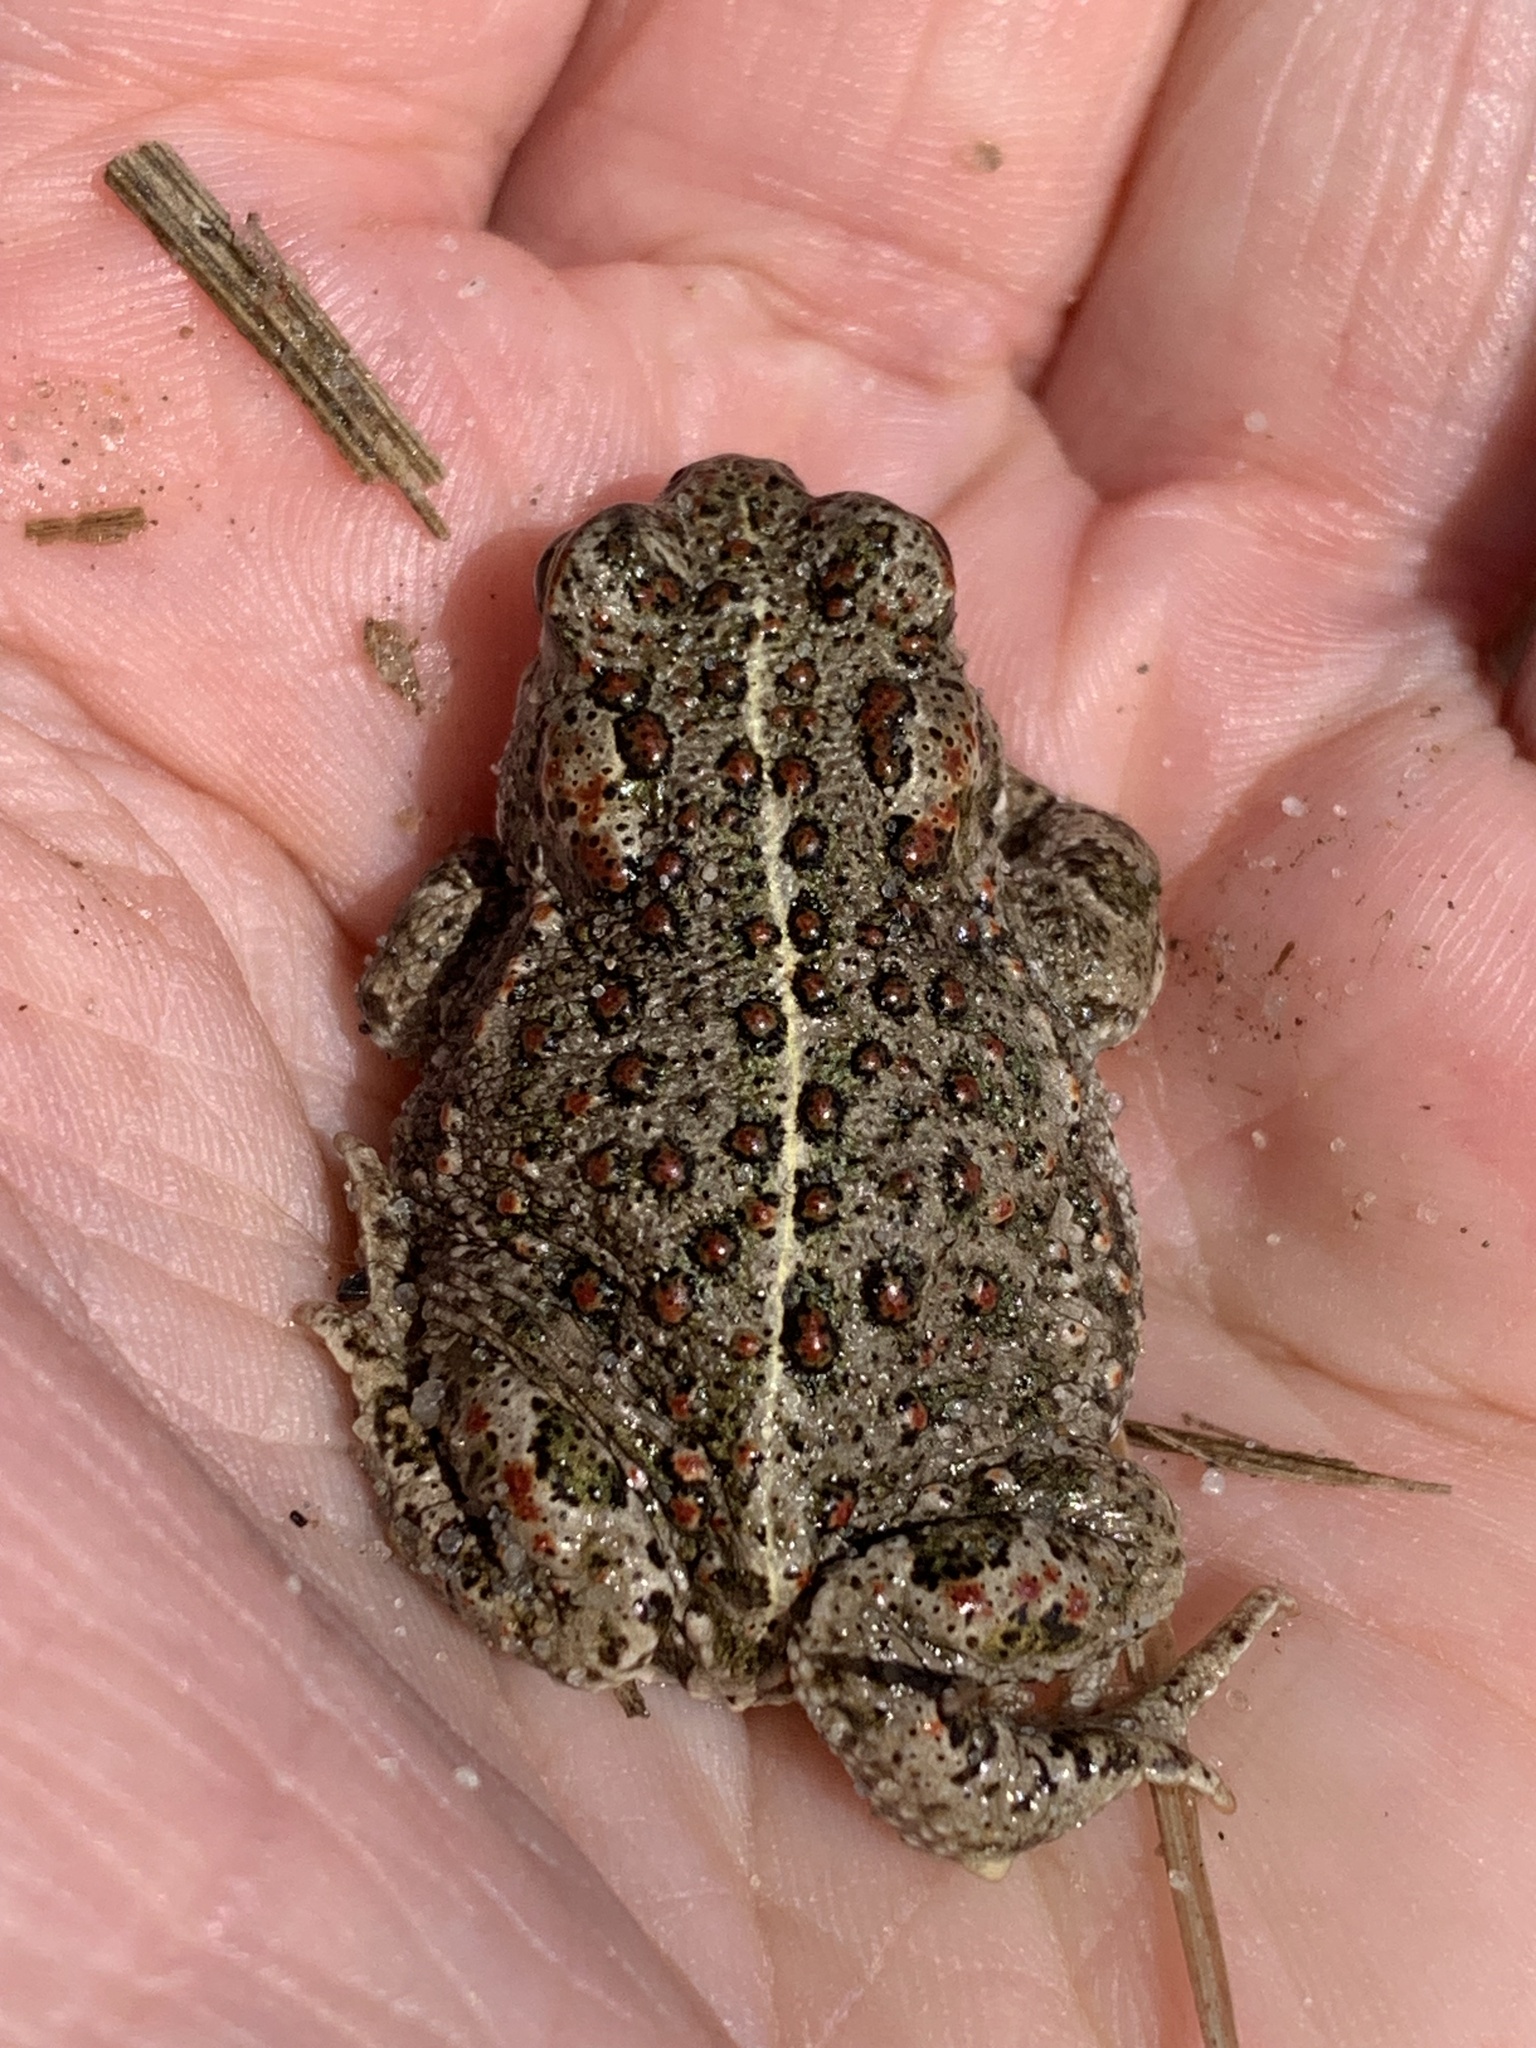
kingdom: Animalia
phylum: Chordata
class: Amphibia
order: Anura
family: Bufonidae
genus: Epidalea
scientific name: Epidalea calamita
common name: Natterjack toad
